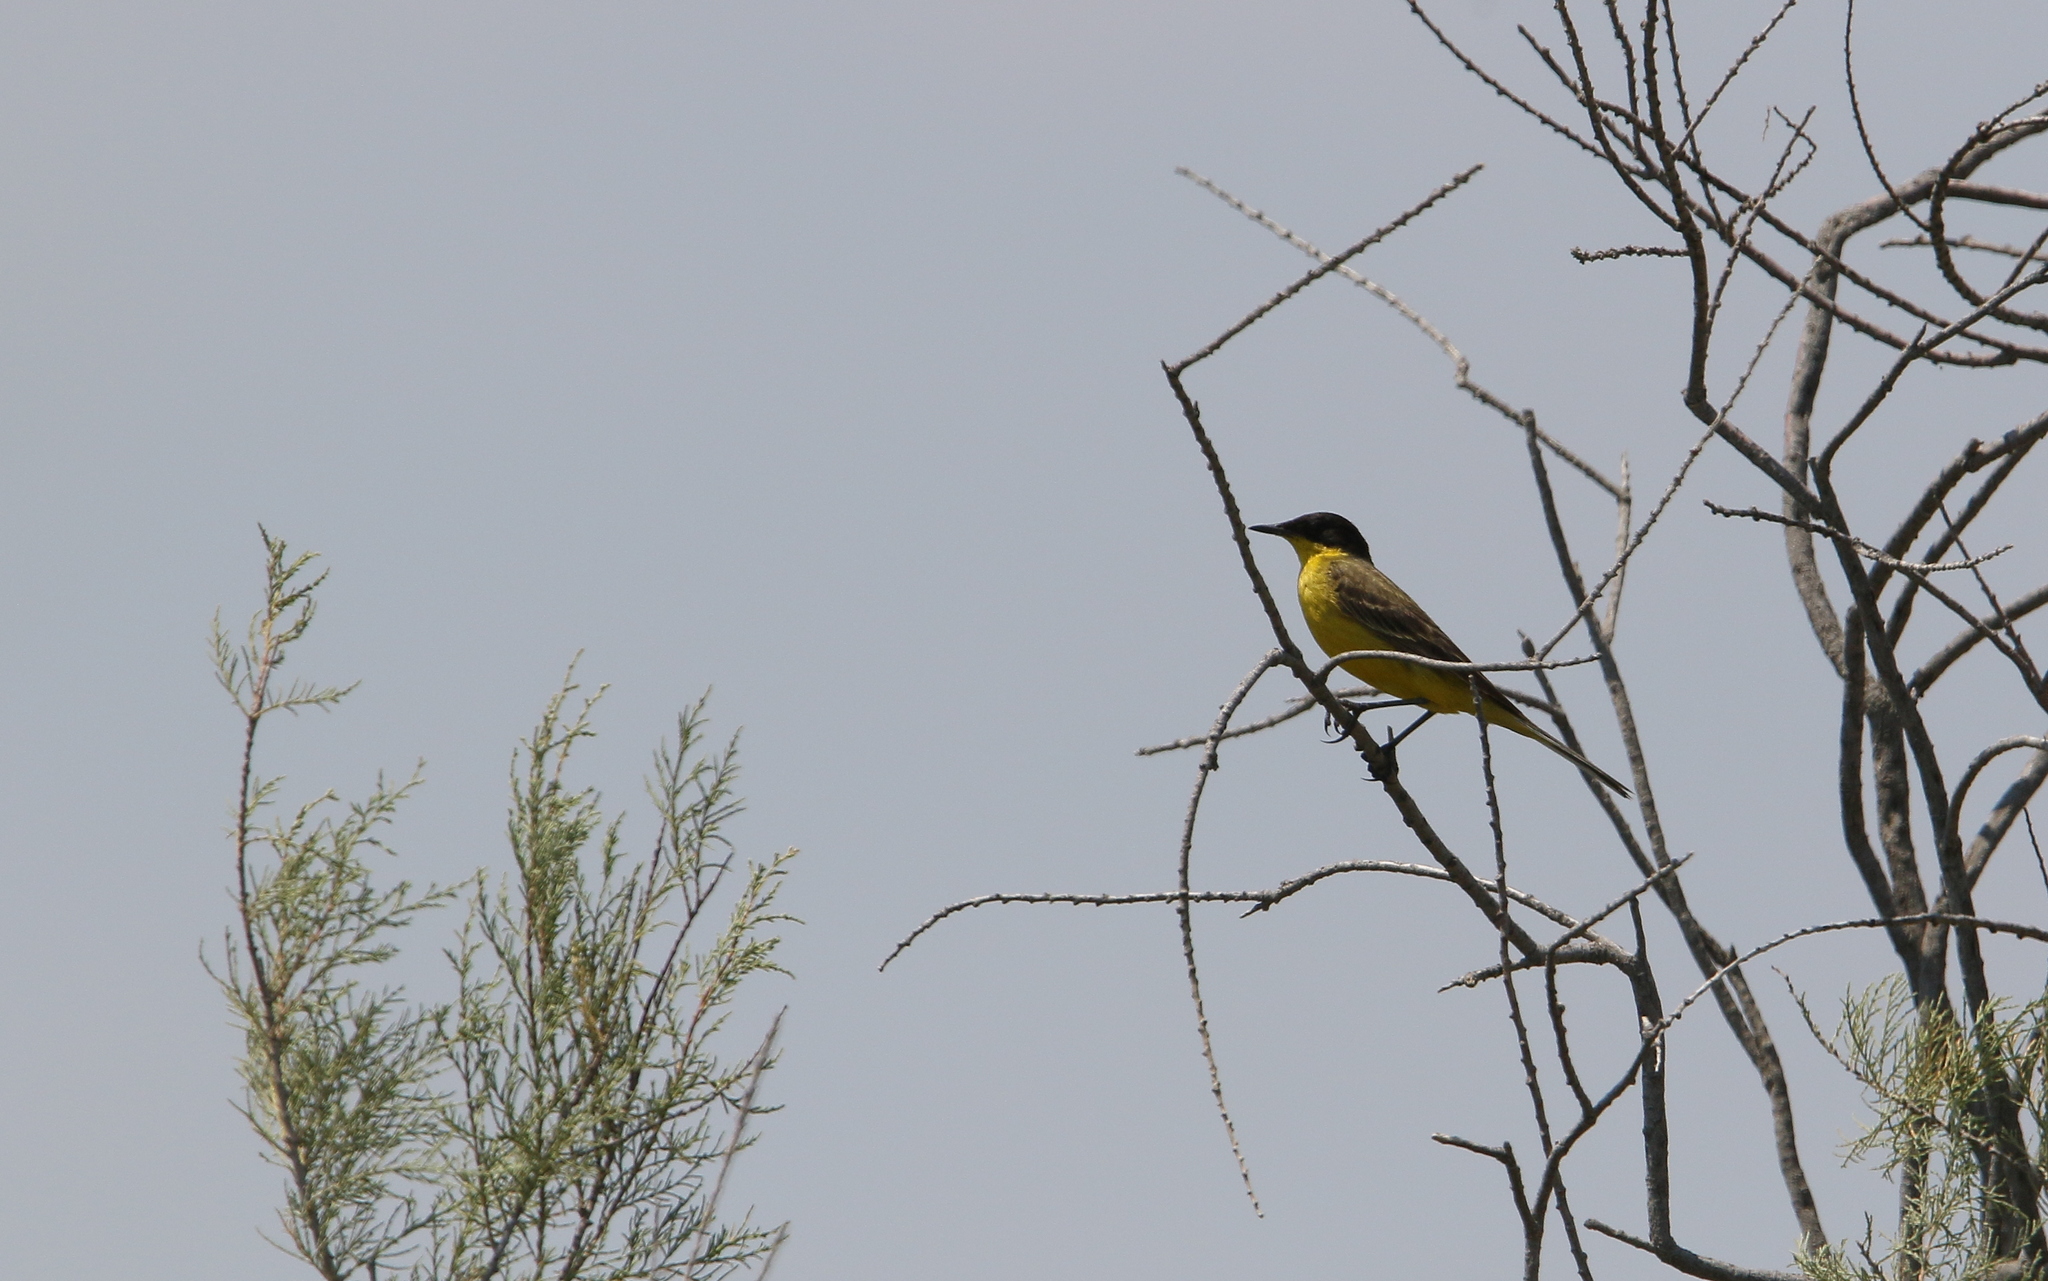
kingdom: Animalia
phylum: Chordata
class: Aves
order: Passeriformes
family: Motacillidae
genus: Motacilla
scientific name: Motacilla flava
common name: Western yellow wagtail
